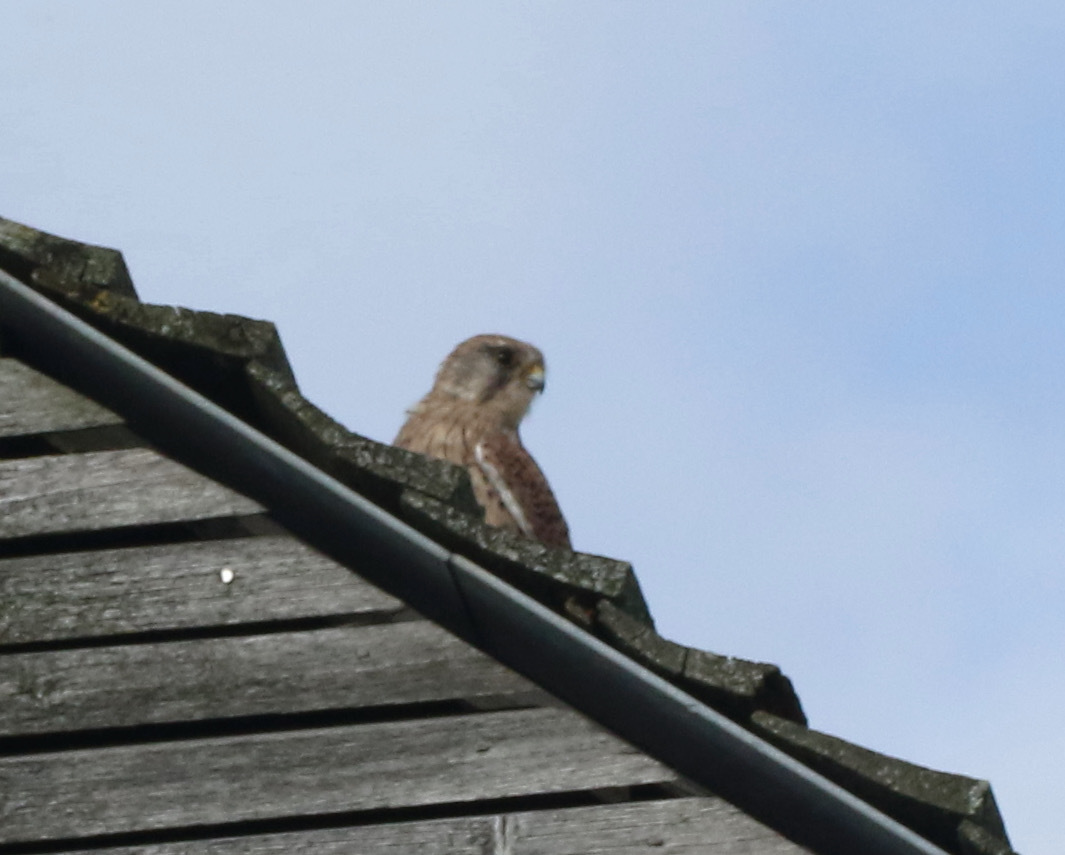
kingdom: Animalia
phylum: Chordata
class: Aves
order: Falconiformes
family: Falconidae
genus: Falco
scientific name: Falco tinnunculus
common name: Common kestrel
